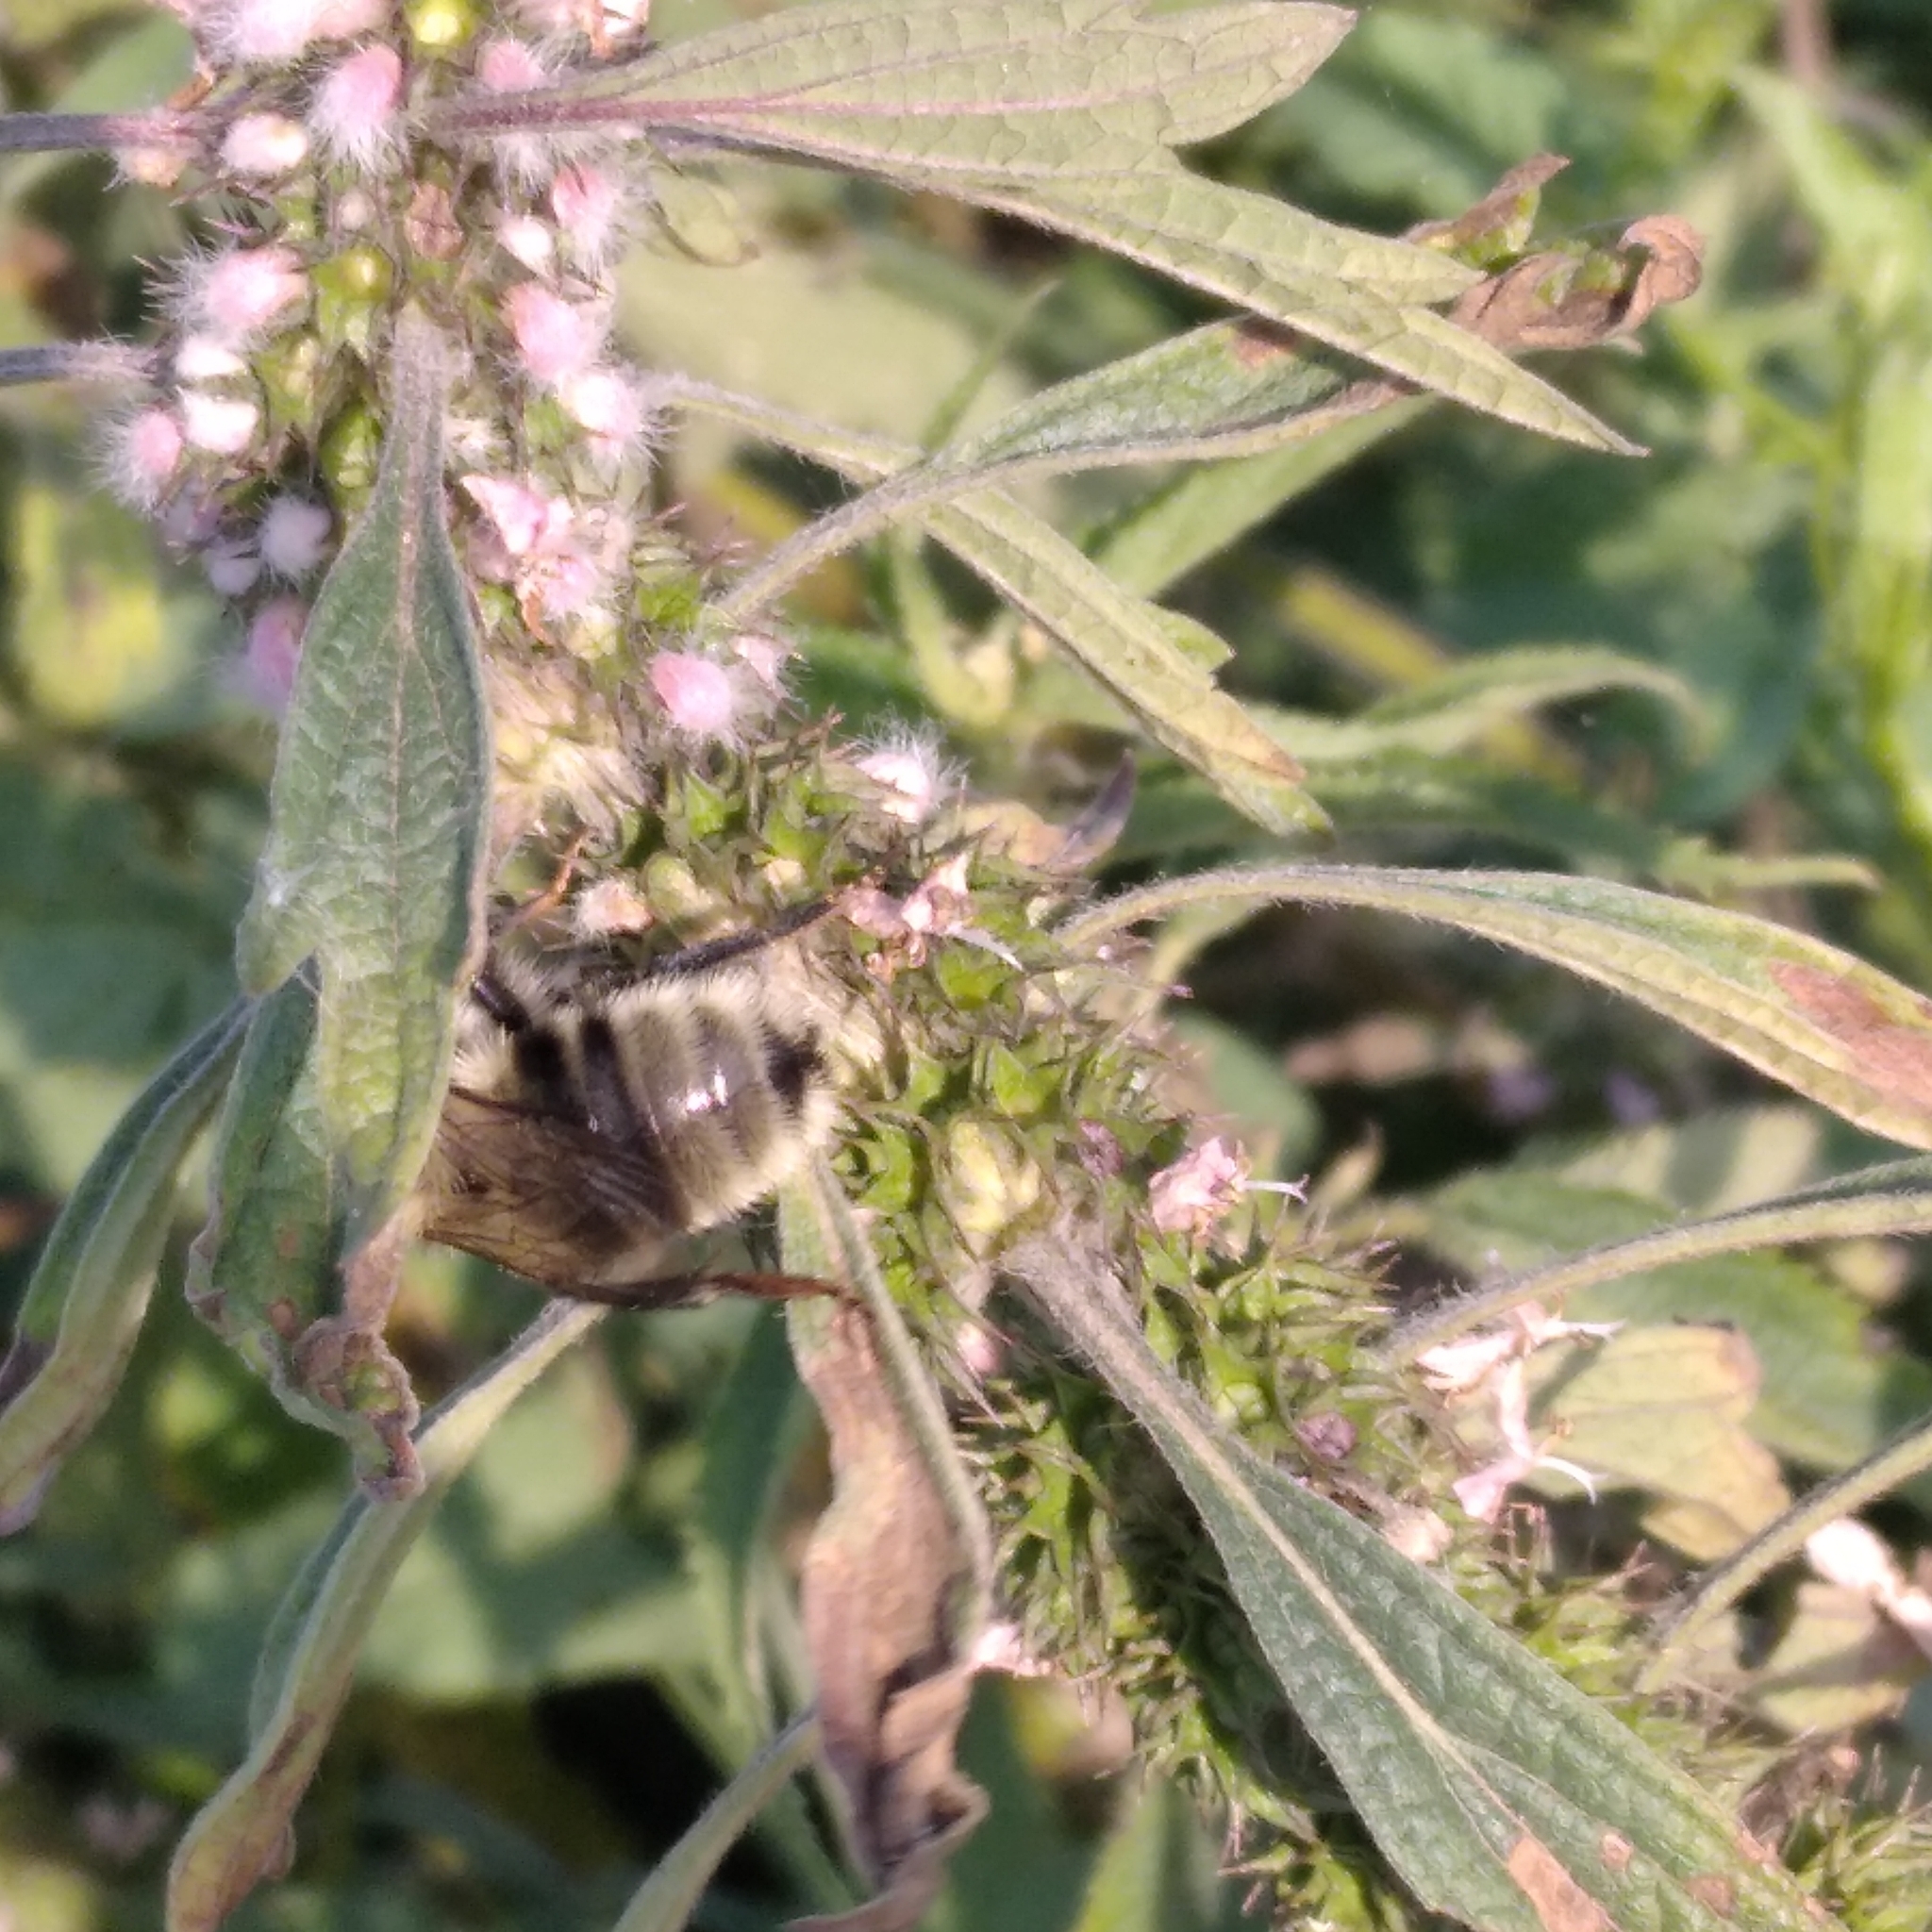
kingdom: Animalia
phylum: Arthropoda
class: Insecta
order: Hymenoptera
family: Apidae
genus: Bombus
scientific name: Bombus
